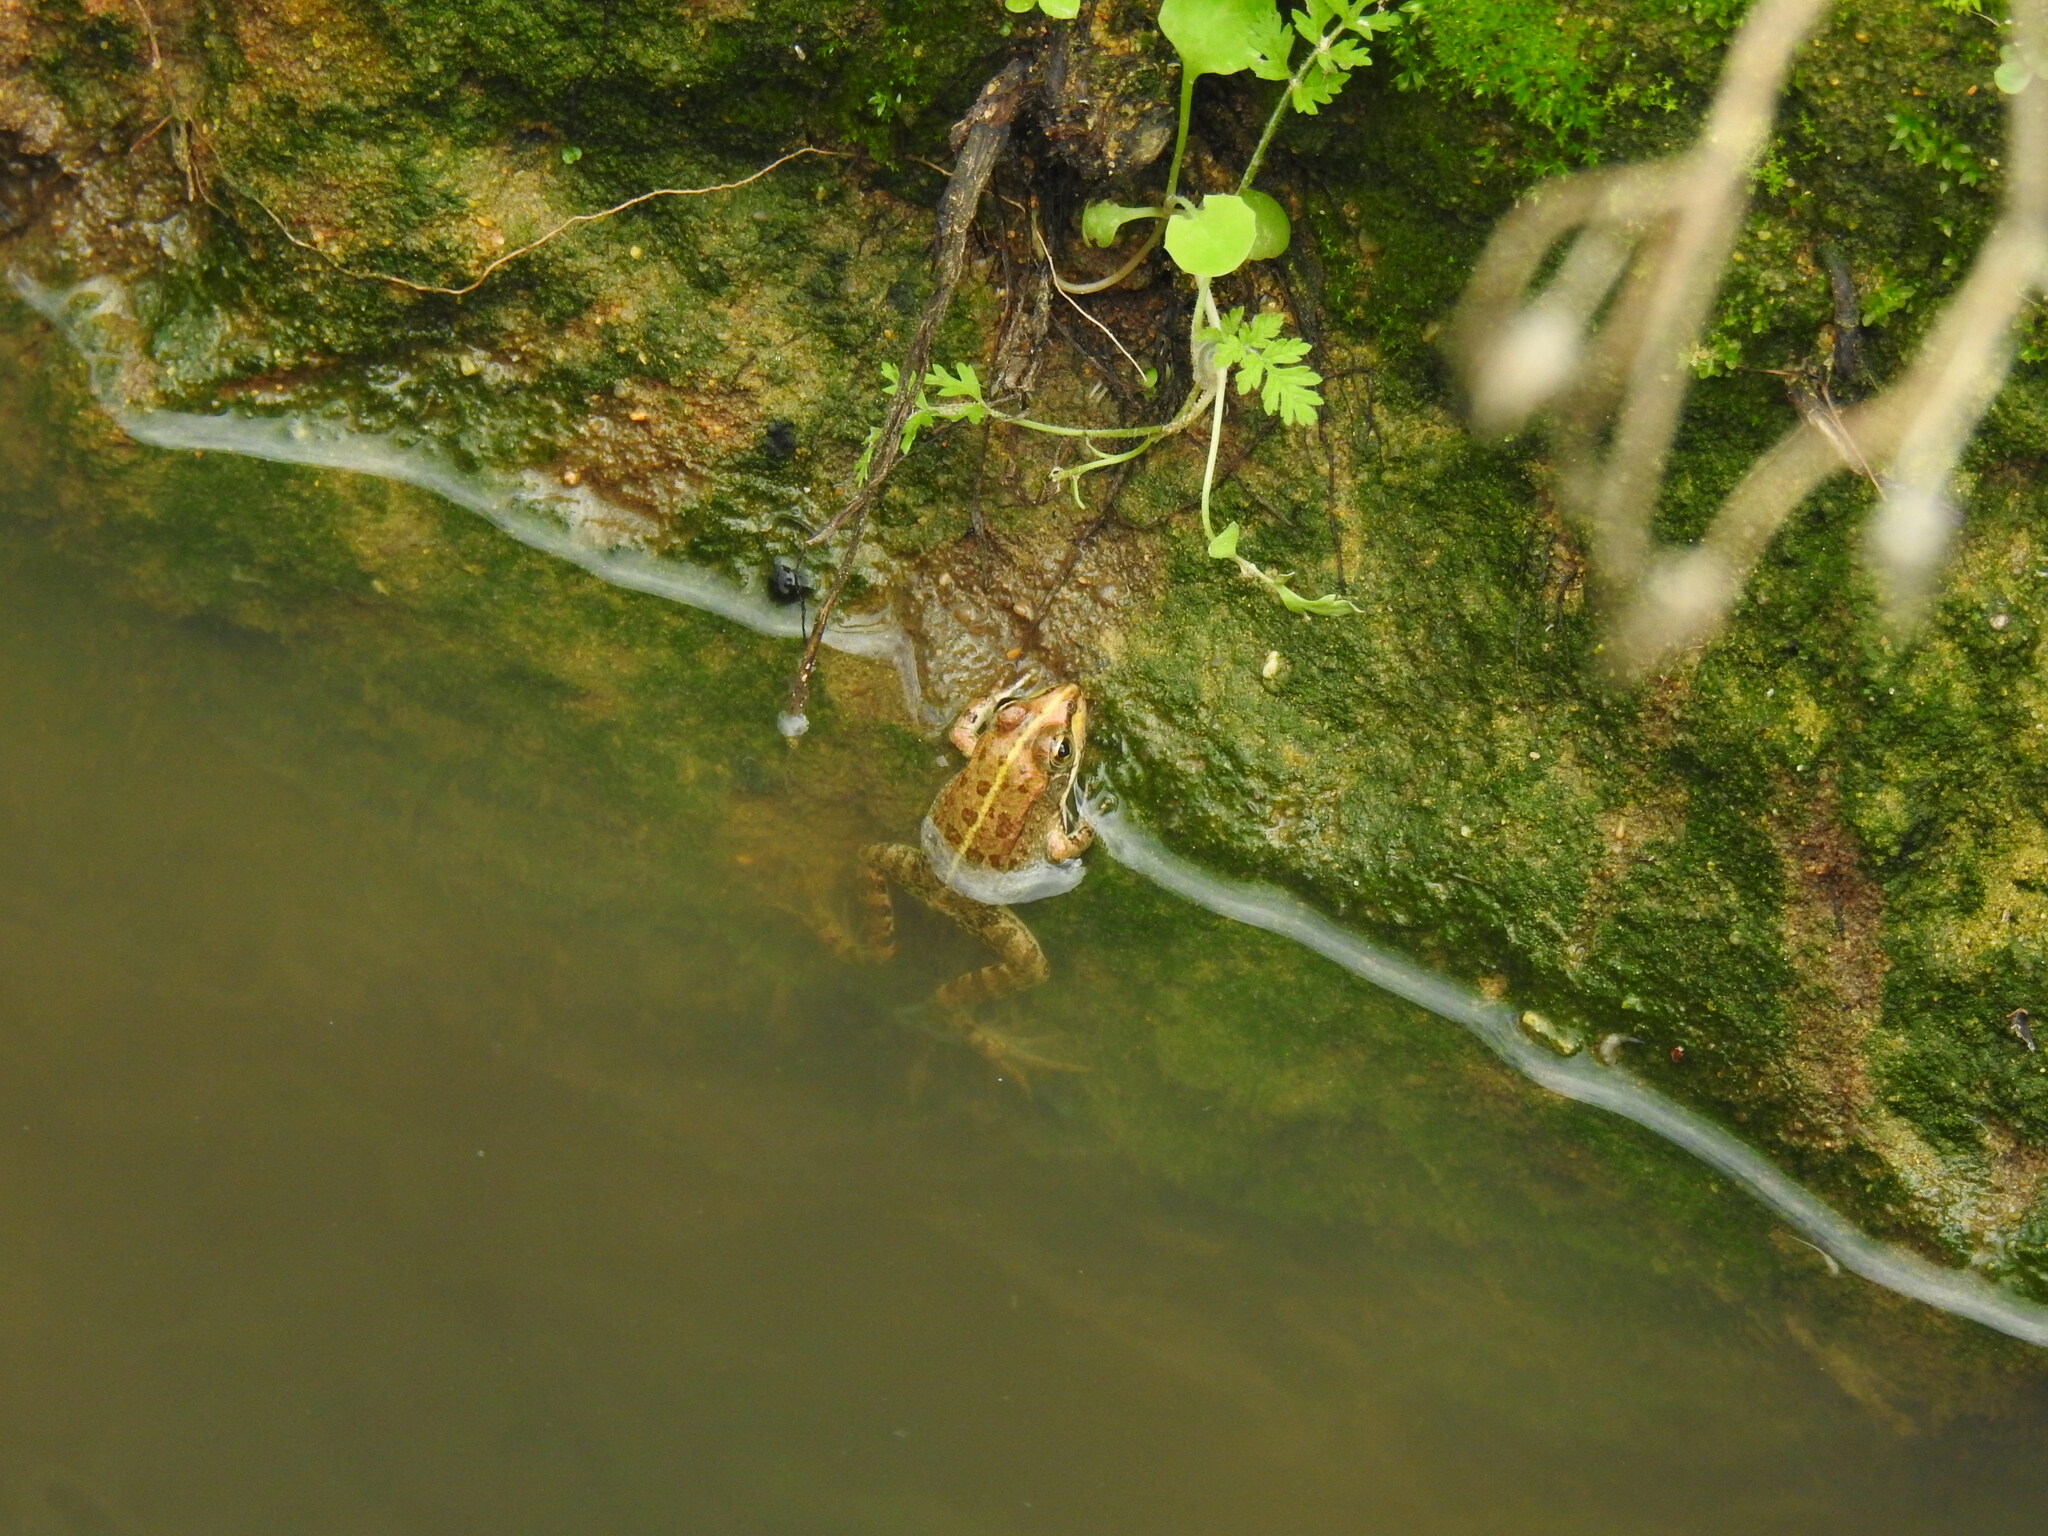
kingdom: Animalia
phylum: Chordata
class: Amphibia
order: Anura
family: Ranidae
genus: Pelophylax
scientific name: Pelophylax perezi
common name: Perez's frog
